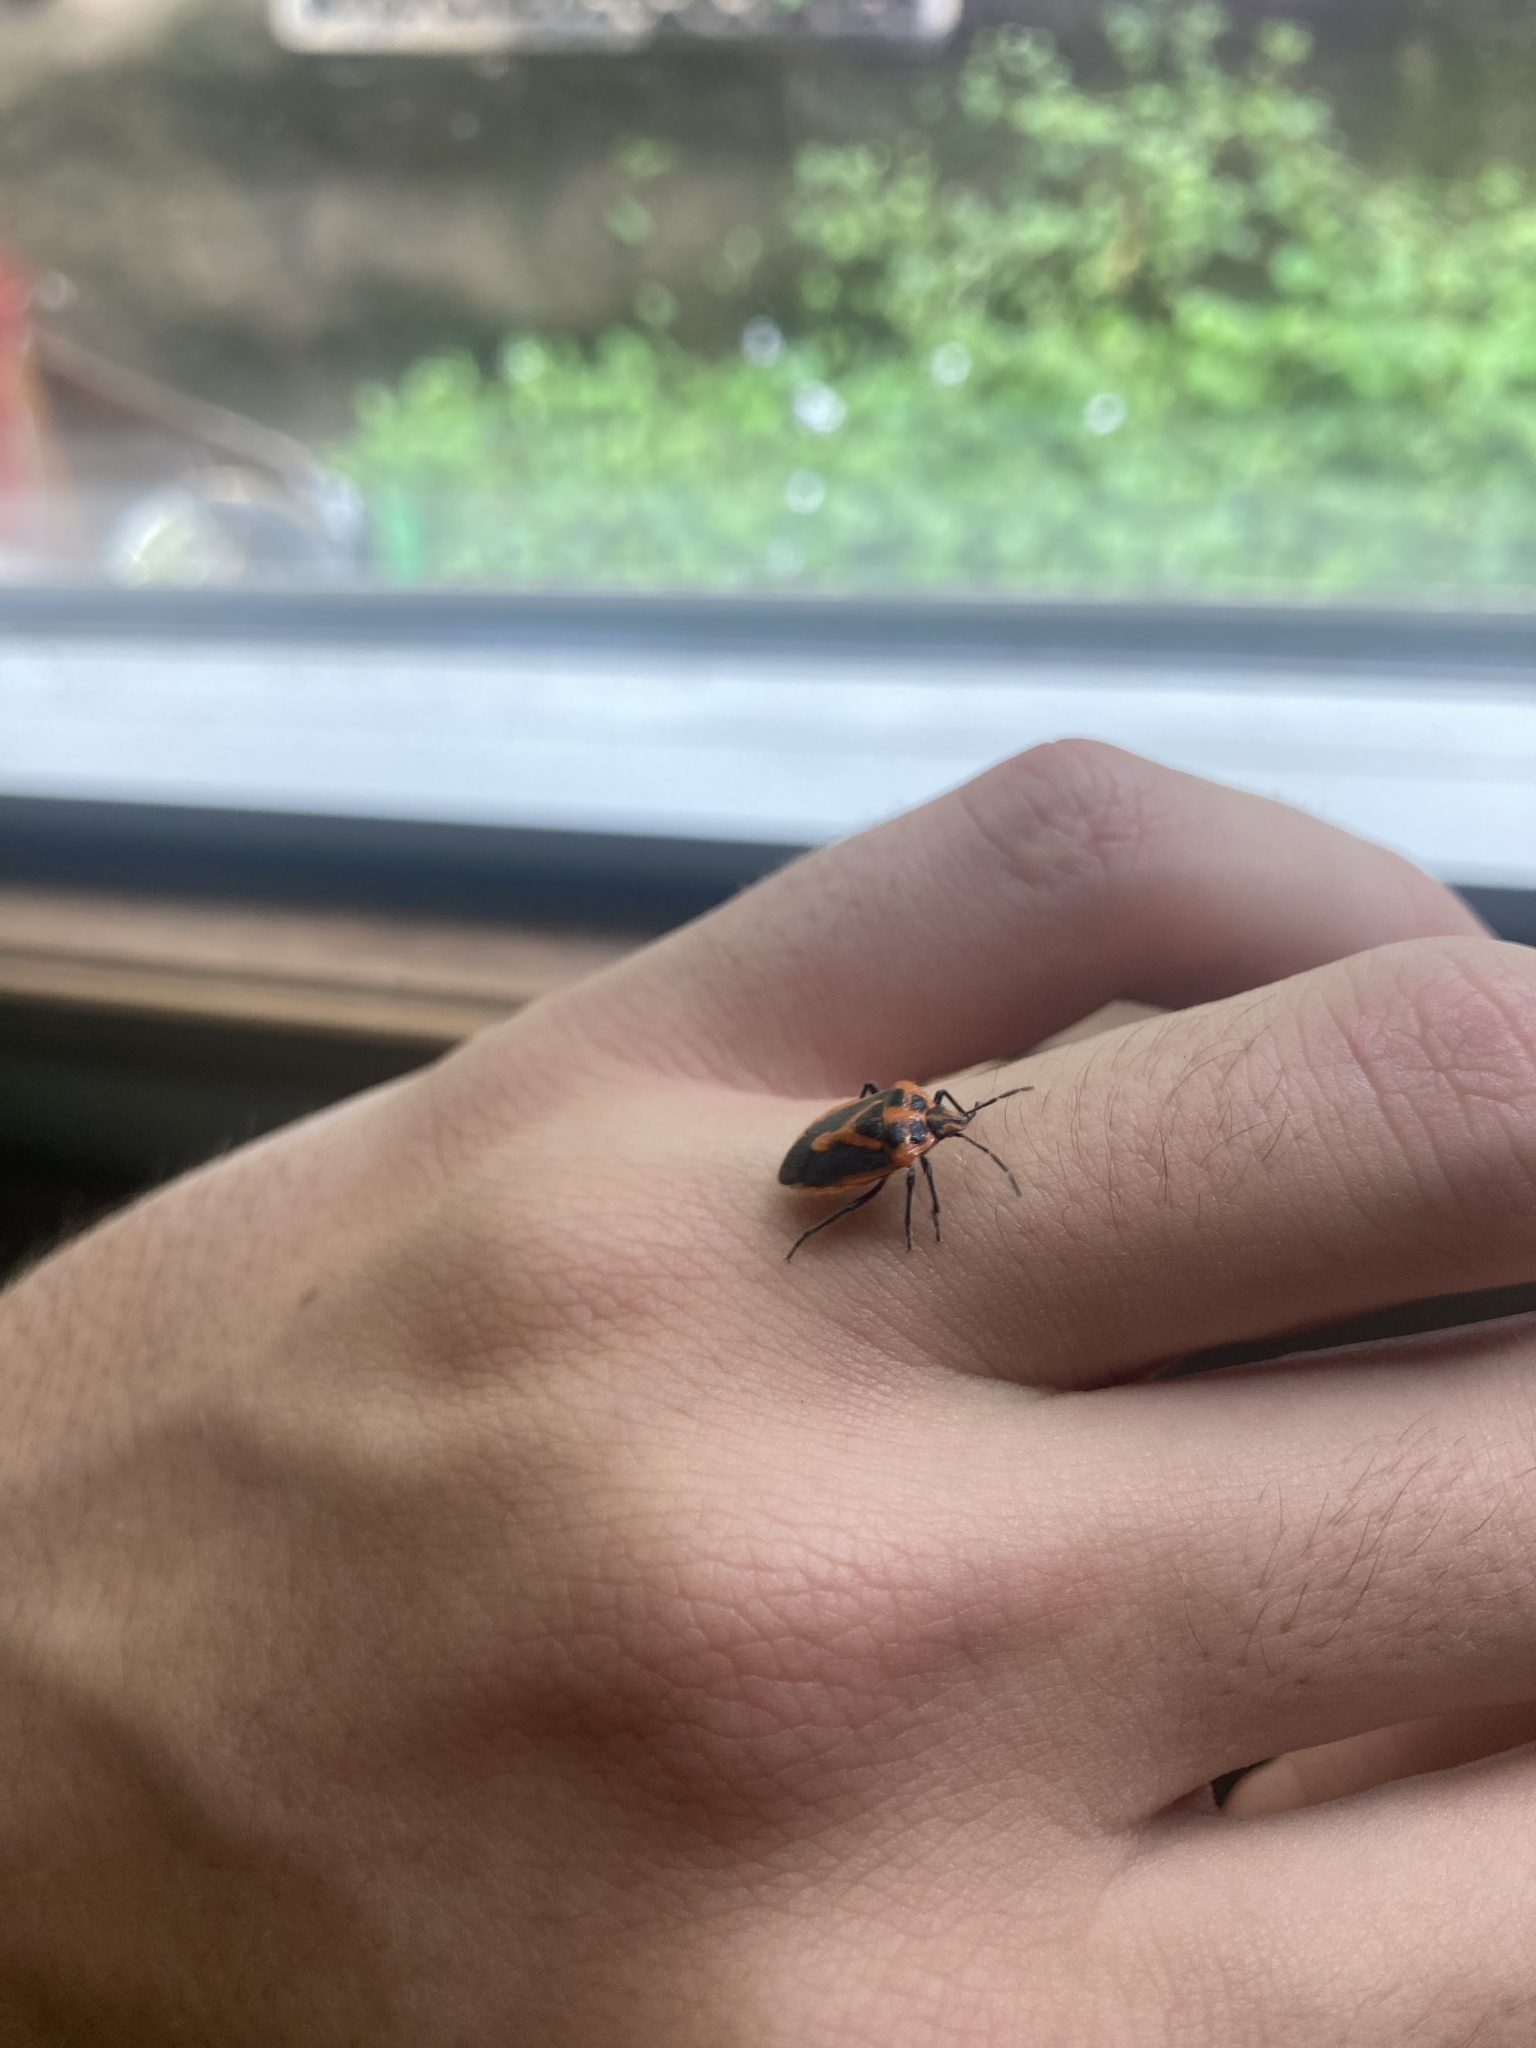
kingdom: Animalia
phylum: Arthropoda
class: Insecta
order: Hemiptera
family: Pentatomidae
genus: Agonoscelis
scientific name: Agonoscelis rutila
